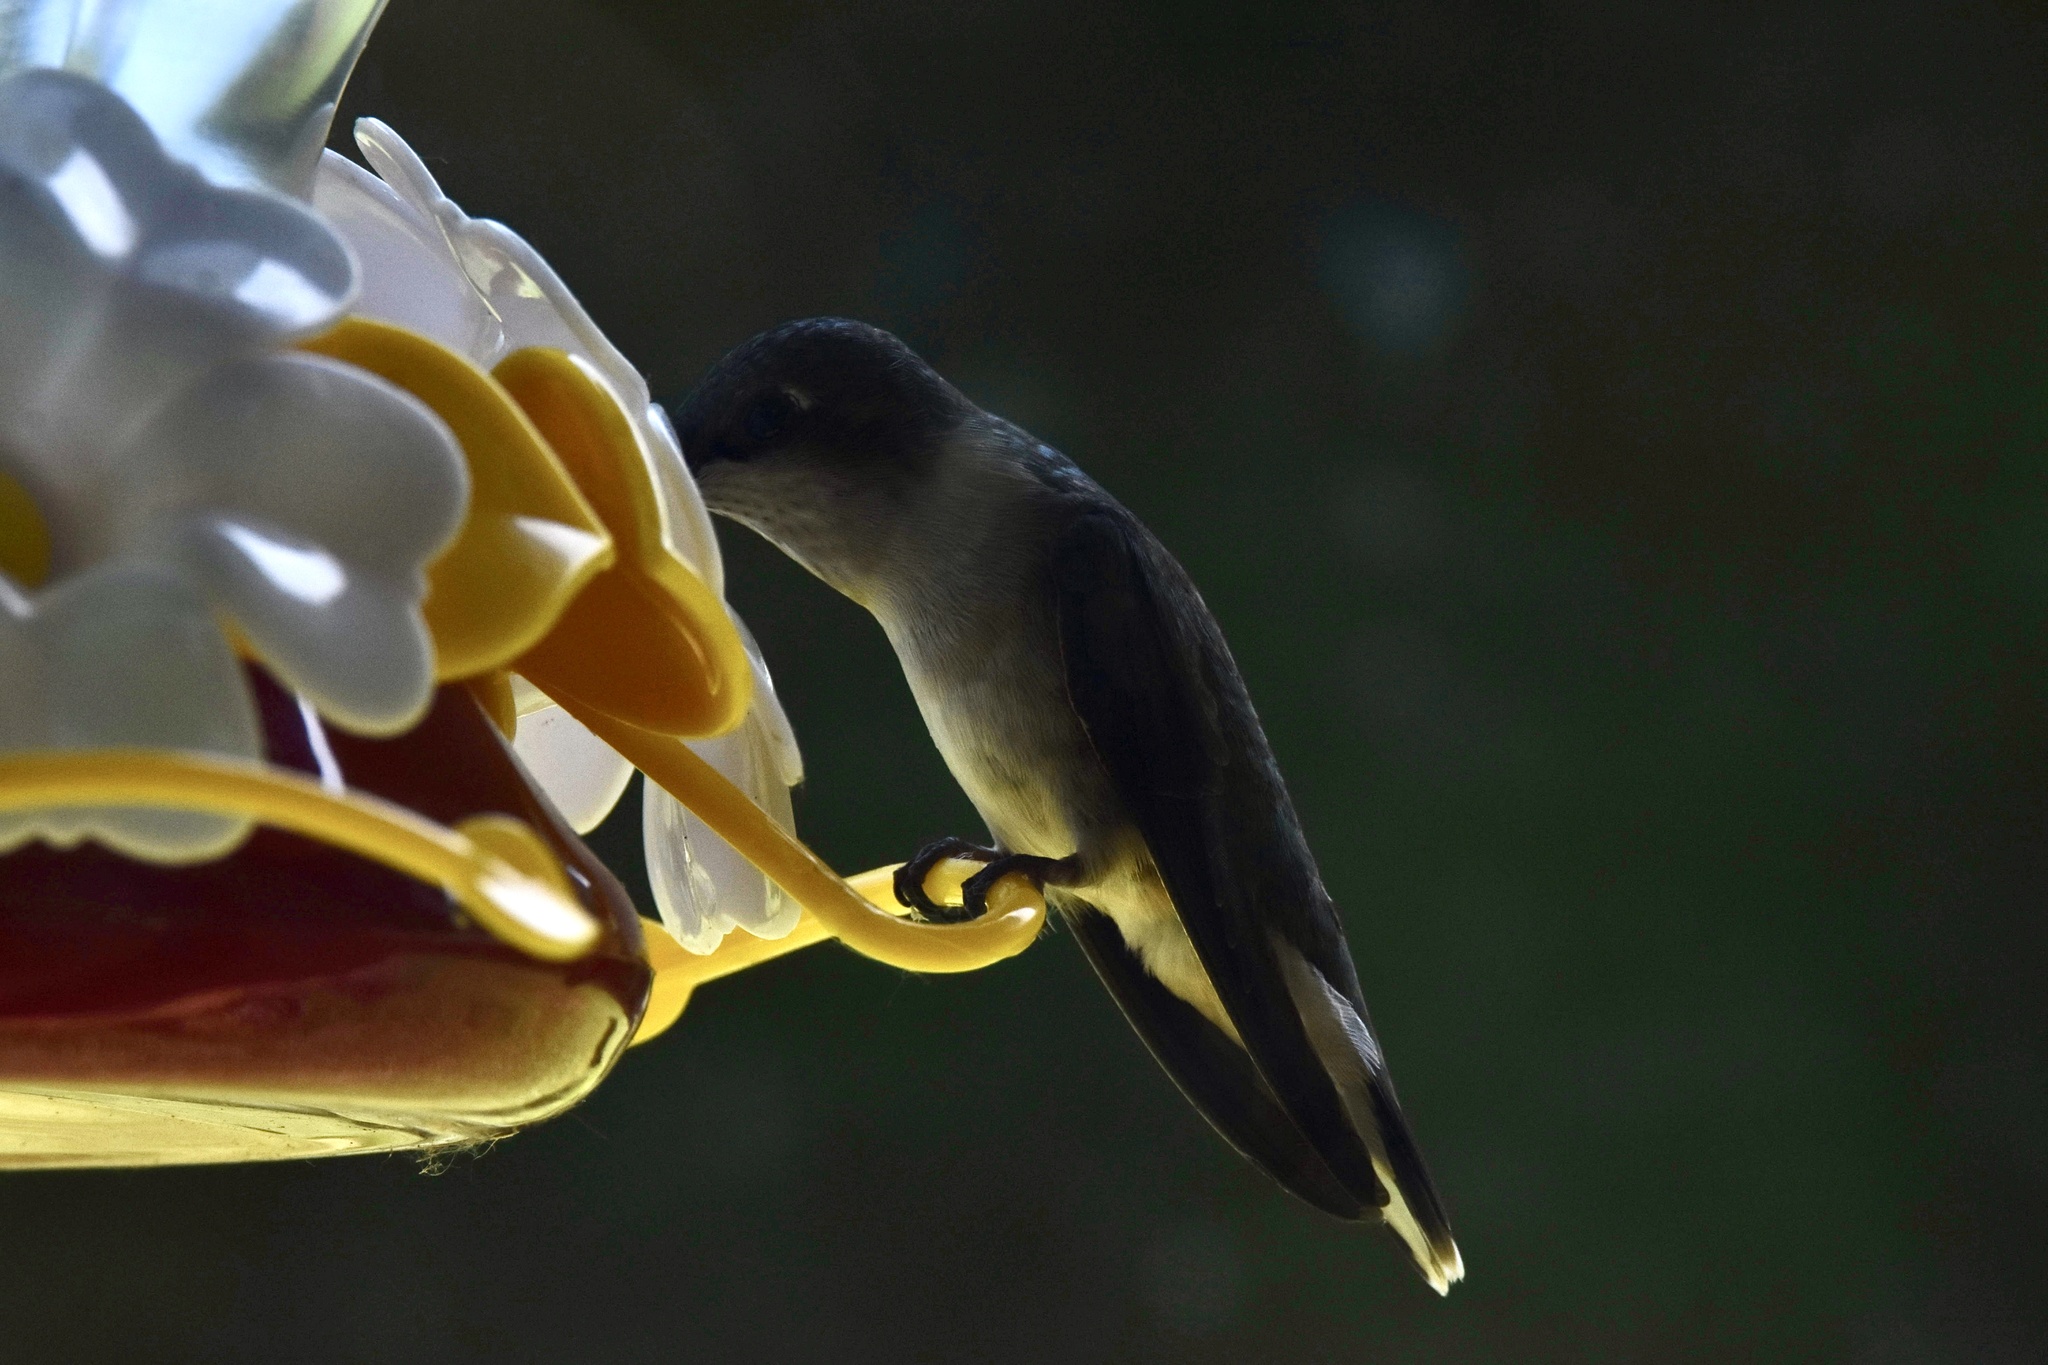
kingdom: Animalia
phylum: Chordata
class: Aves
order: Apodiformes
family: Trochilidae
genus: Archilochus
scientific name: Archilochus colubris
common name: Ruby-throated hummingbird
